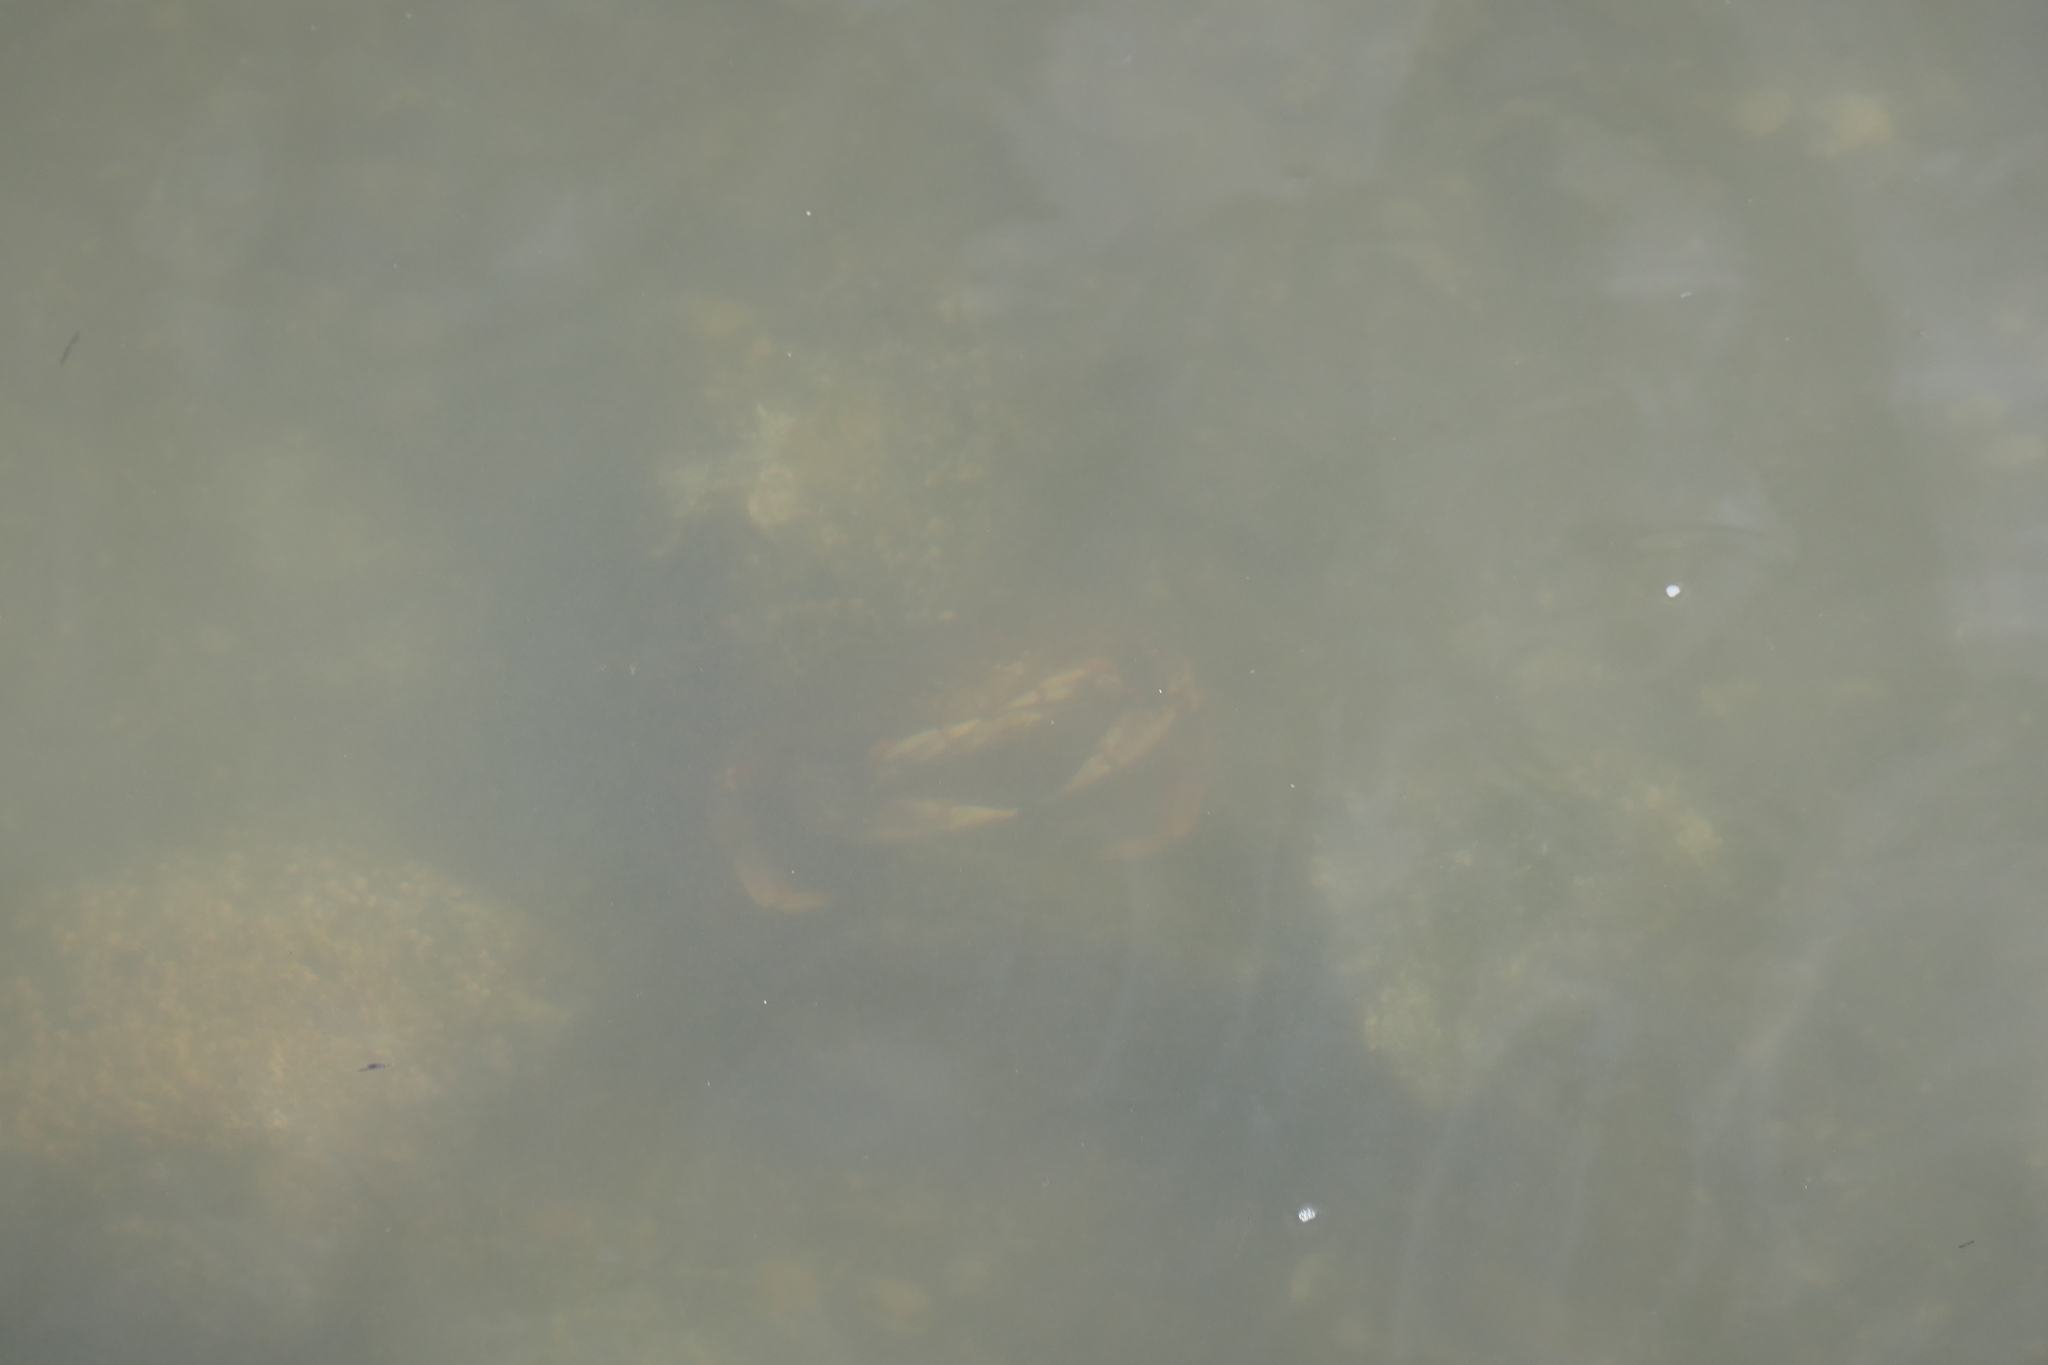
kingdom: Animalia
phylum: Arthropoda
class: Malacostraca
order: Decapoda
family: Cancridae
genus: Metacarcinus
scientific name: Metacarcinus magister
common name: Californian crab
